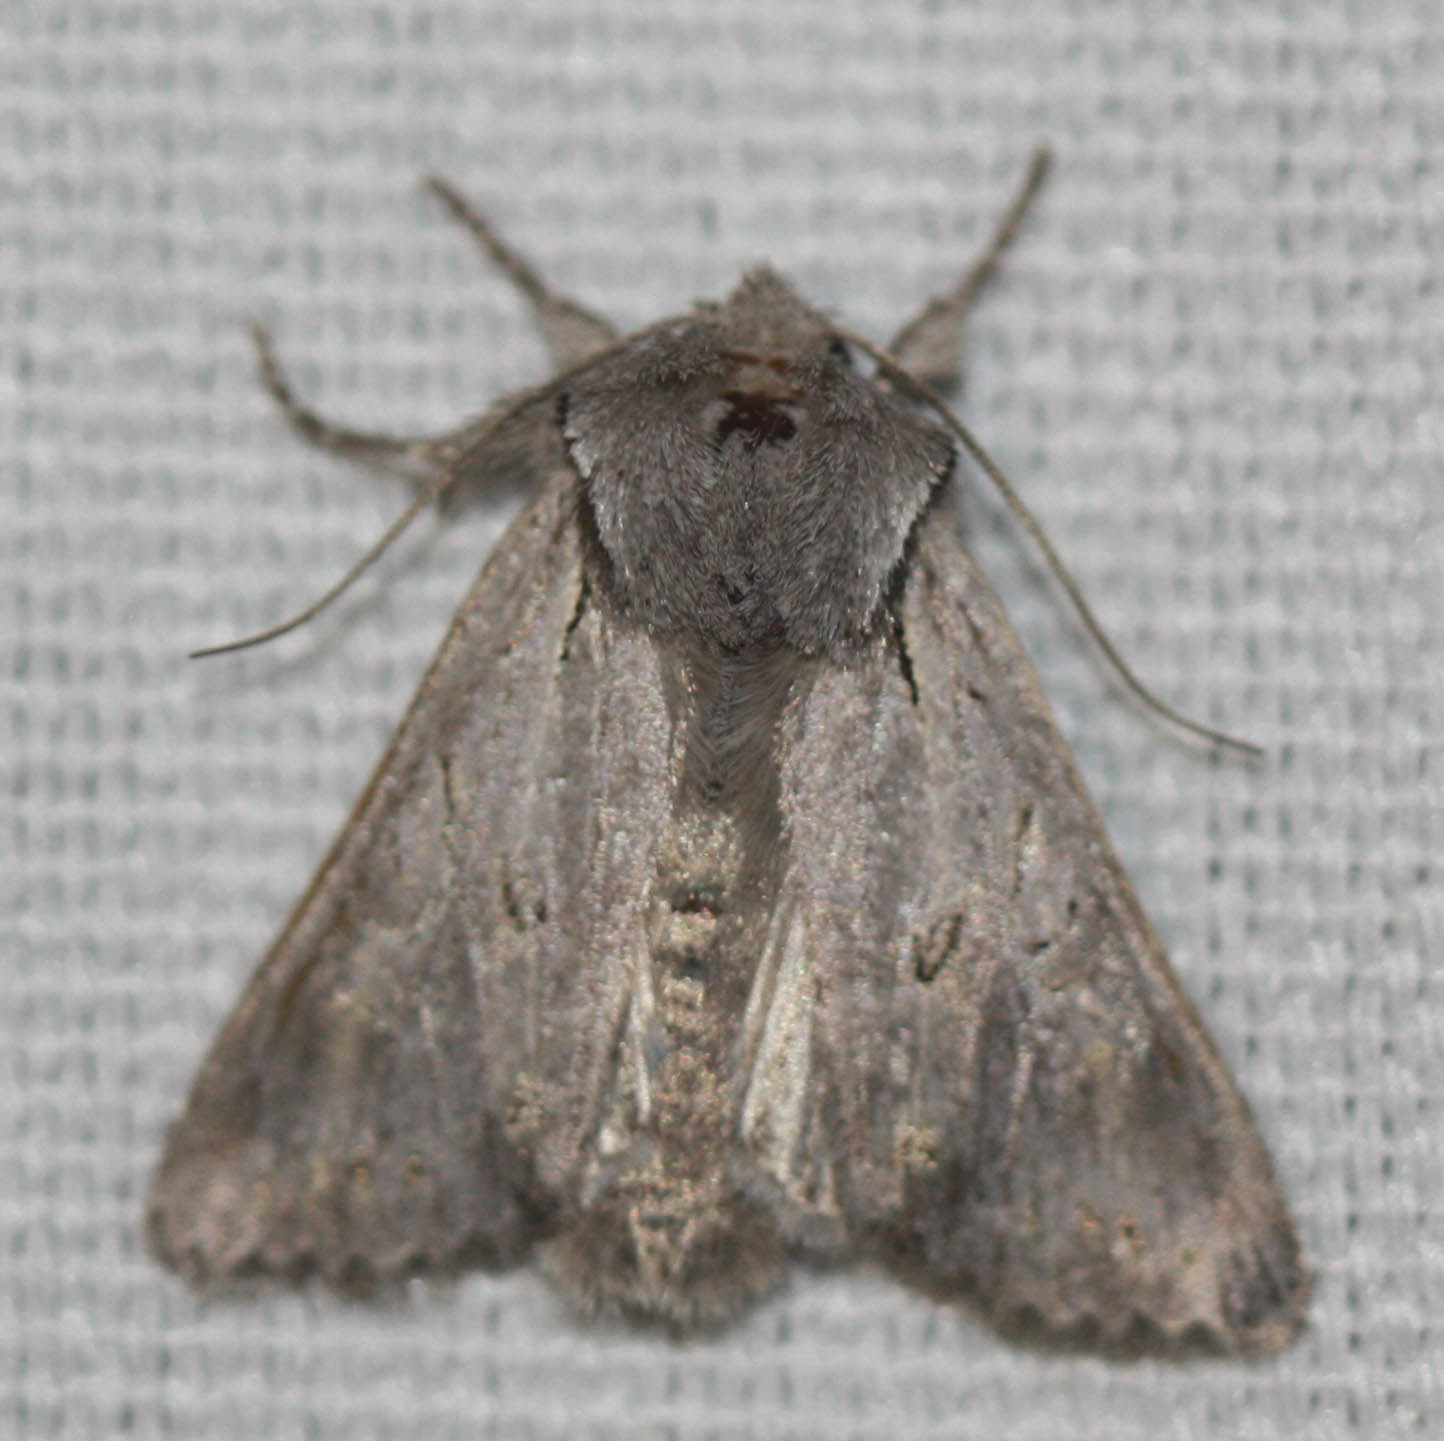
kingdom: Animalia
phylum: Arthropoda
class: Insecta
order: Lepidoptera
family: Noctuidae
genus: Lacinipolia
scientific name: Lacinipolia patalis
